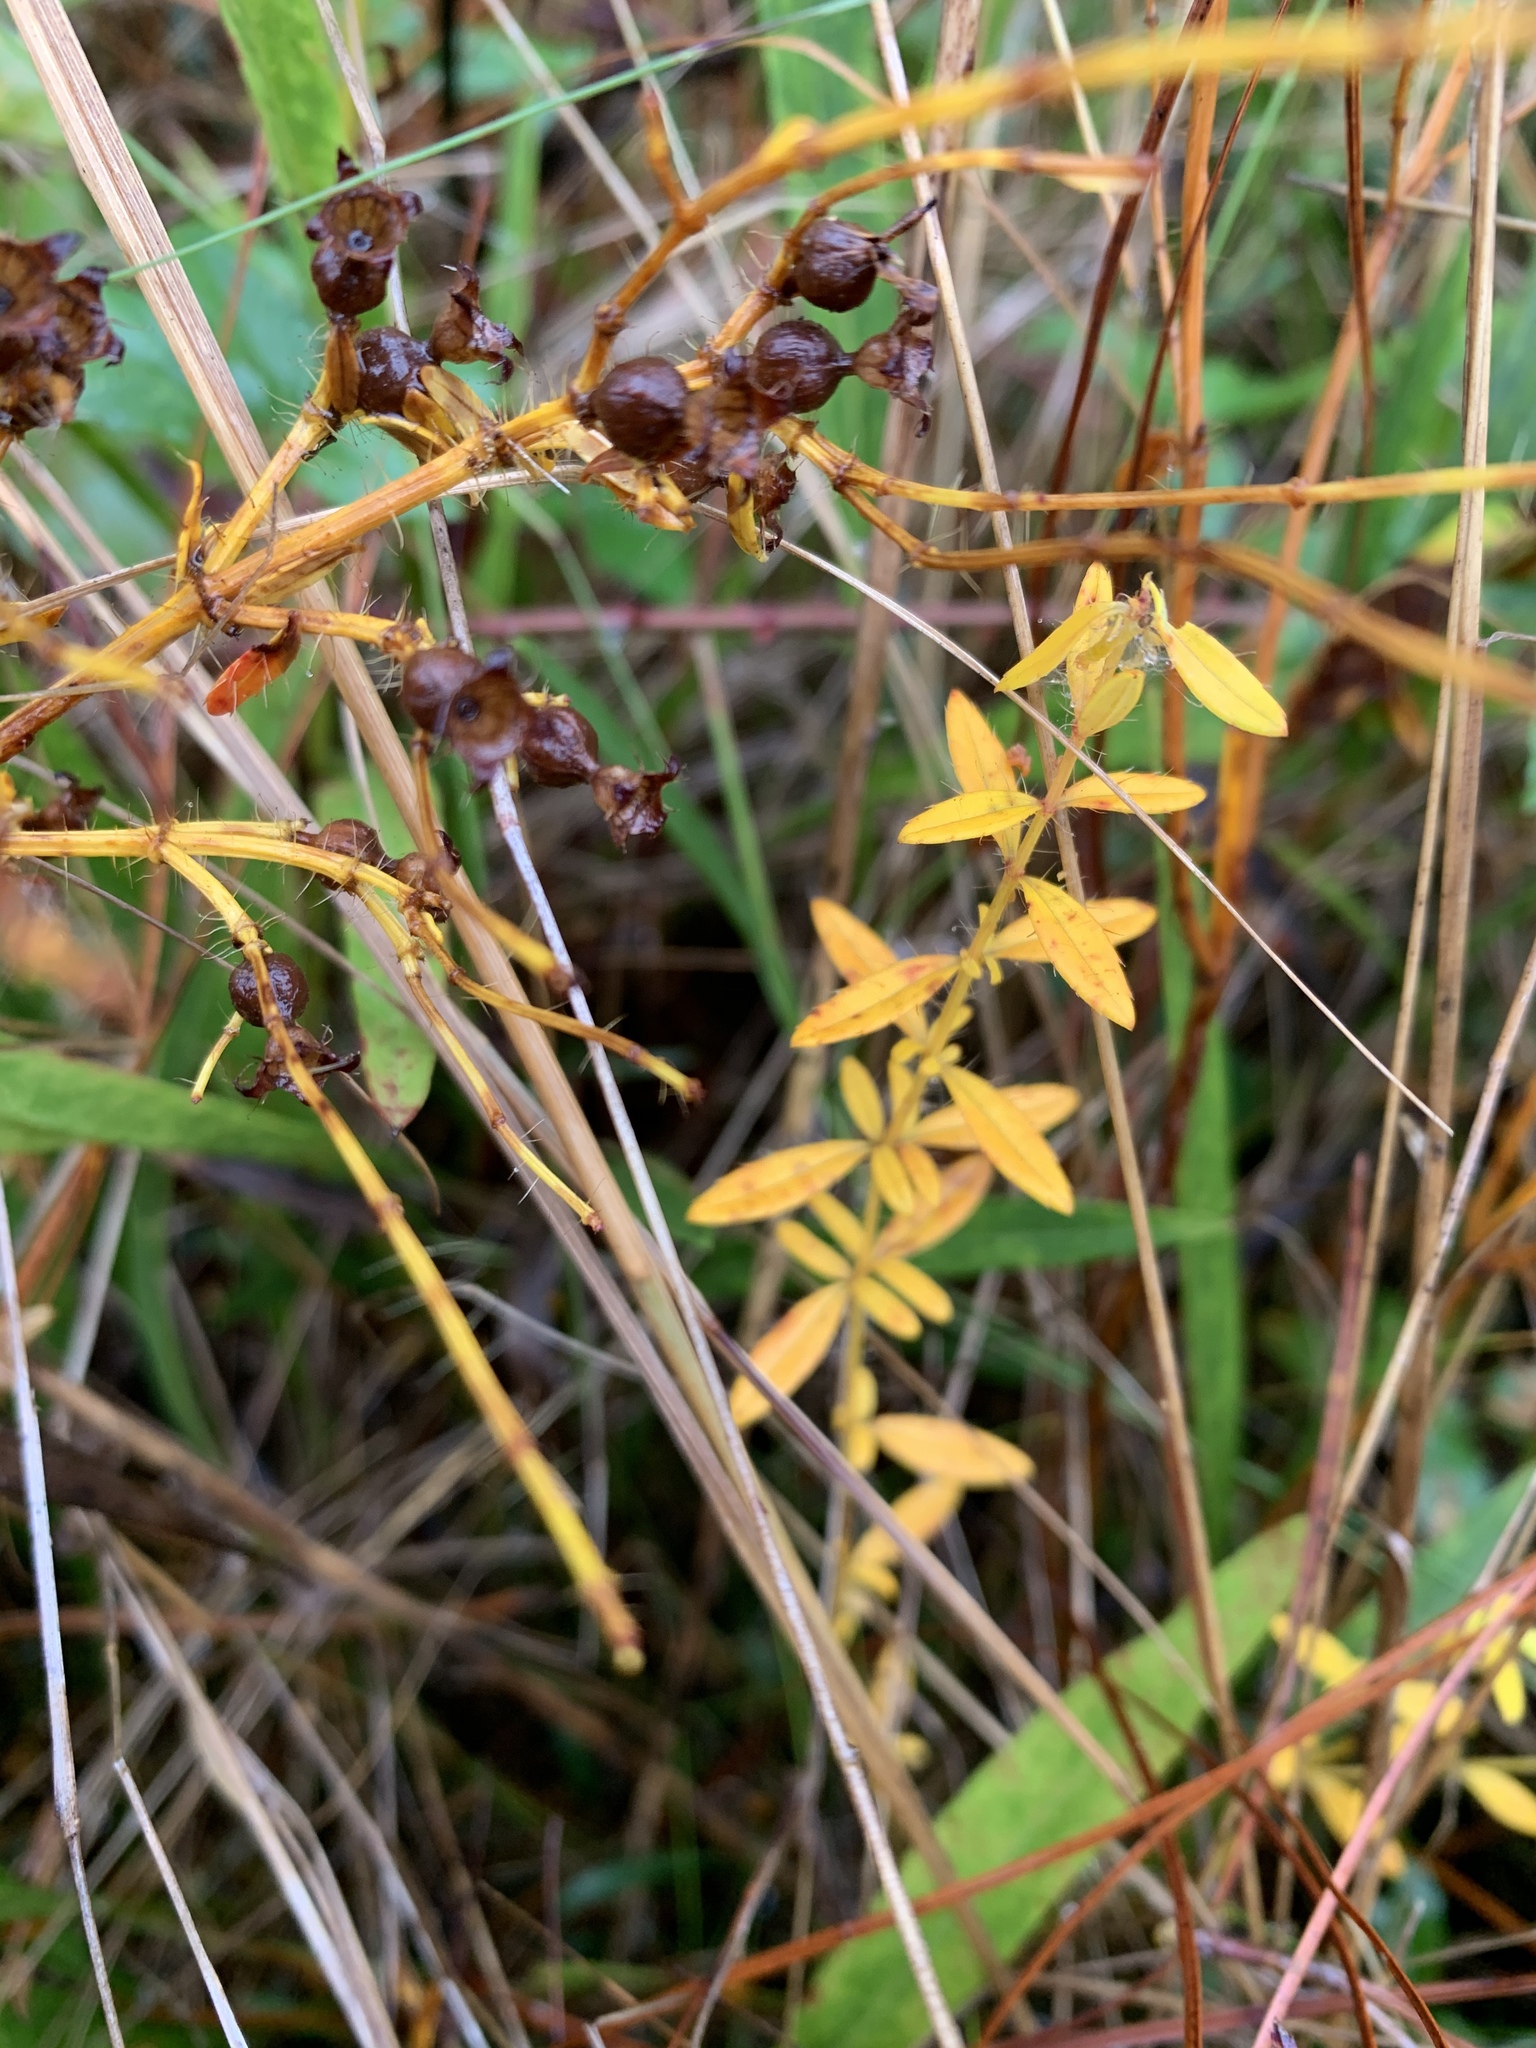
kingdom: Plantae
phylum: Tracheophyta
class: Magnoliopsida
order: Myrtales
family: Melastomataceae
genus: Rhexia
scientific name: Rhexia lutea
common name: Golden meadow-beauty
